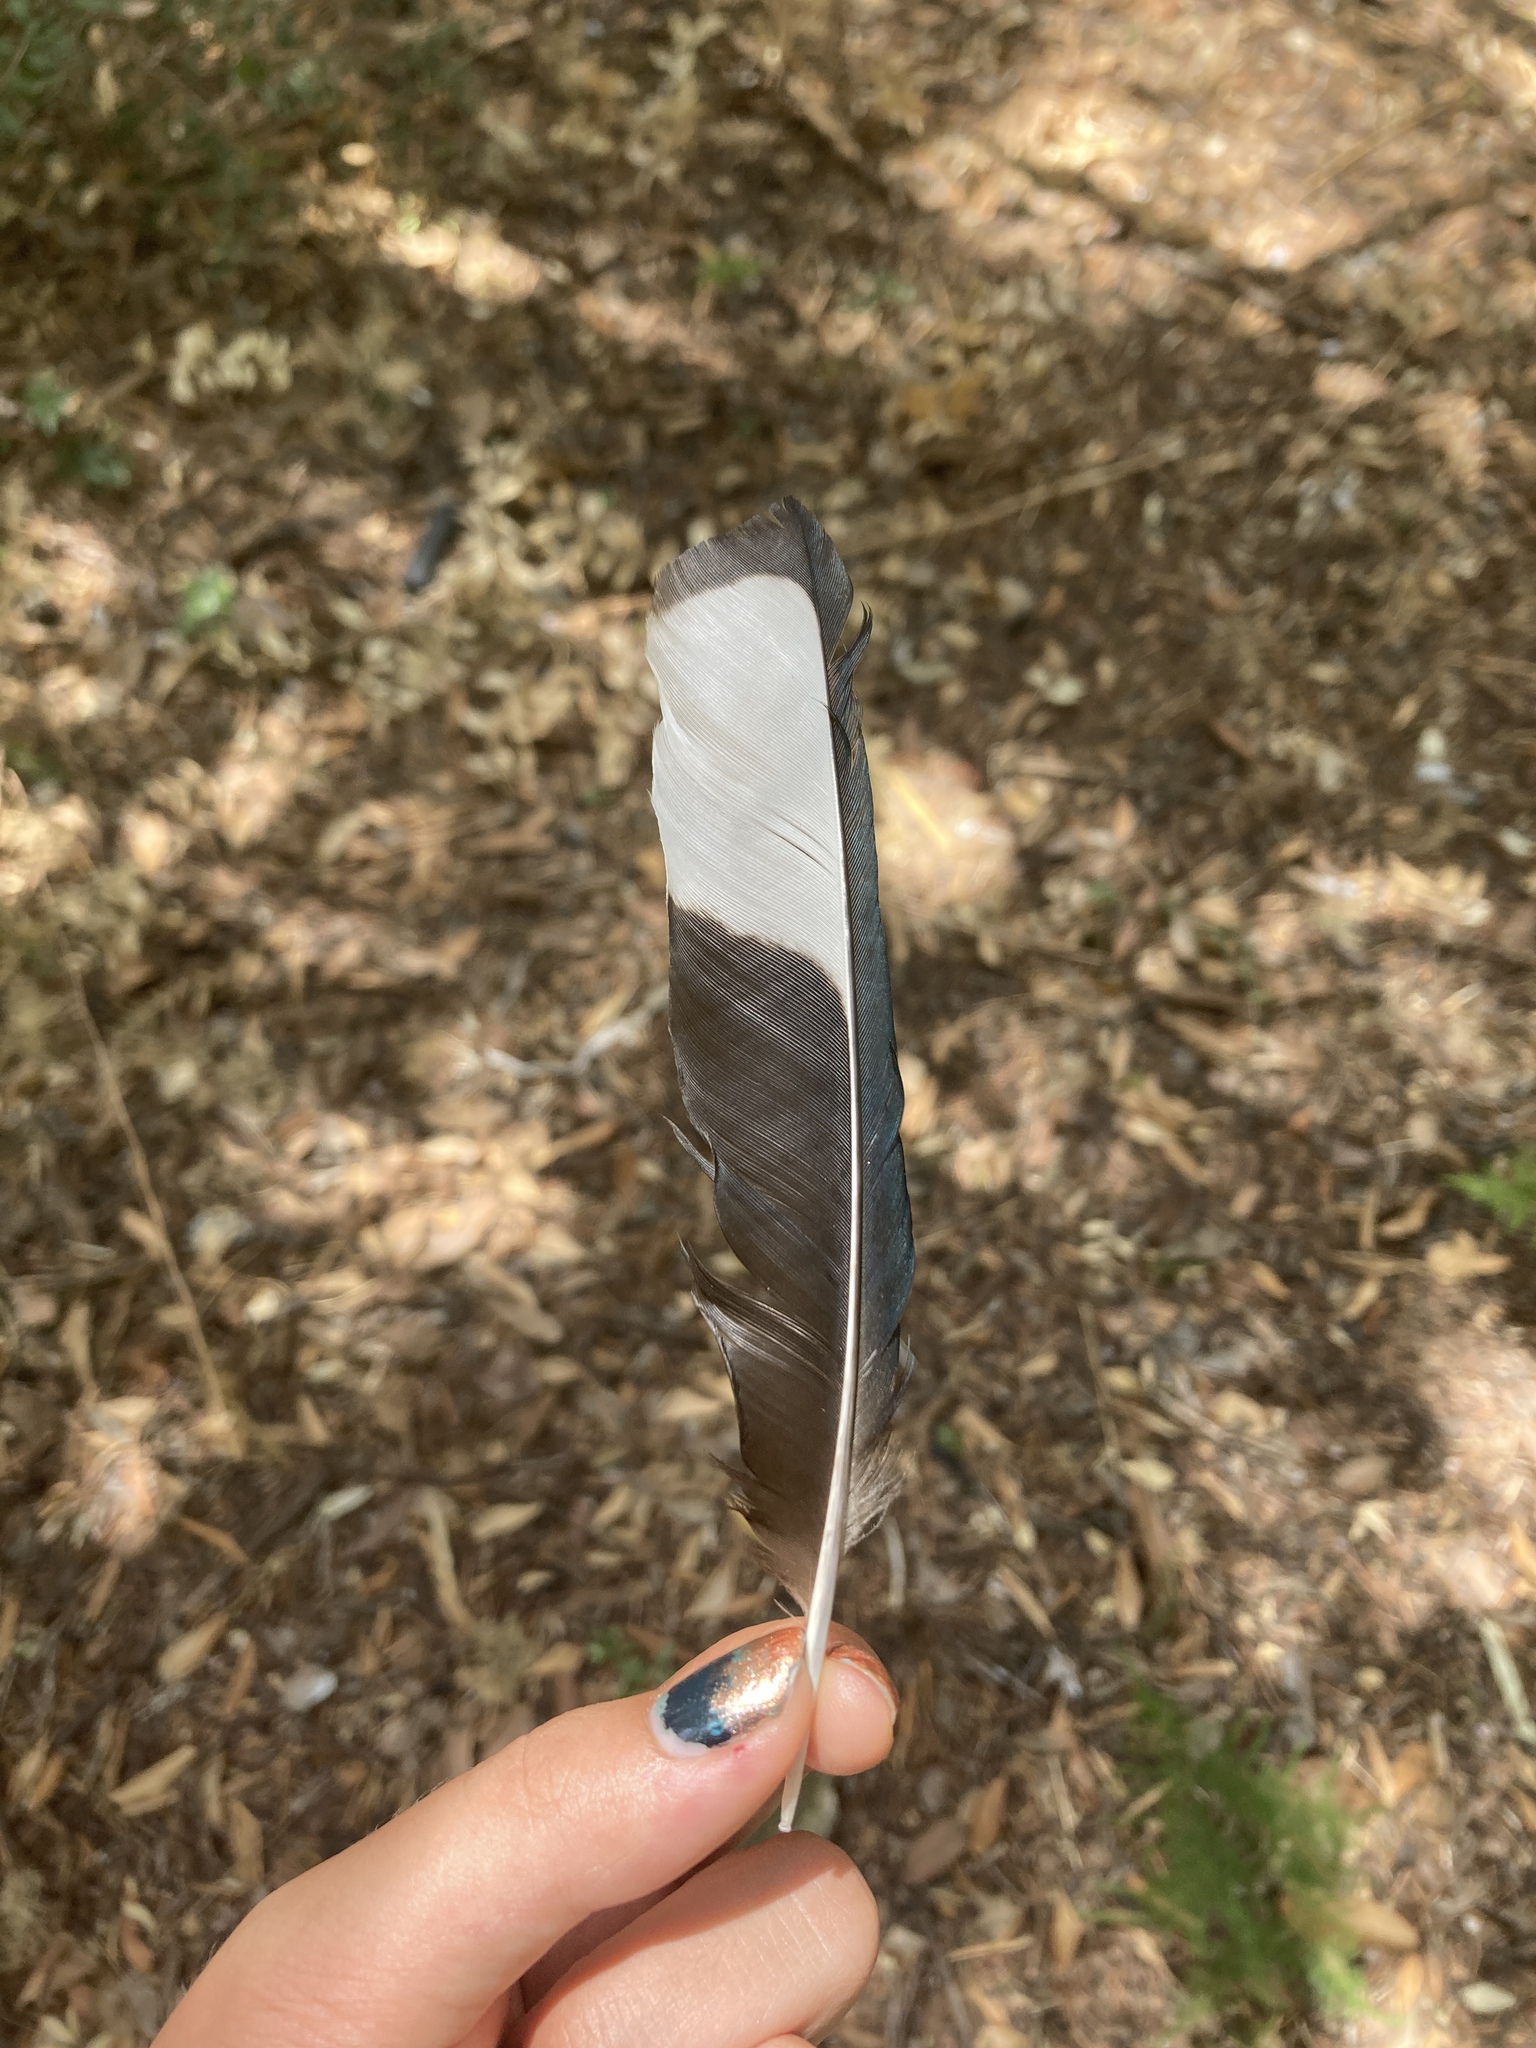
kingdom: Animalia
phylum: Chordata
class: Aves
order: Passeriformes
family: Corvidae
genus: Pica
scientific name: Pica pica
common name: Eurasian magpie
